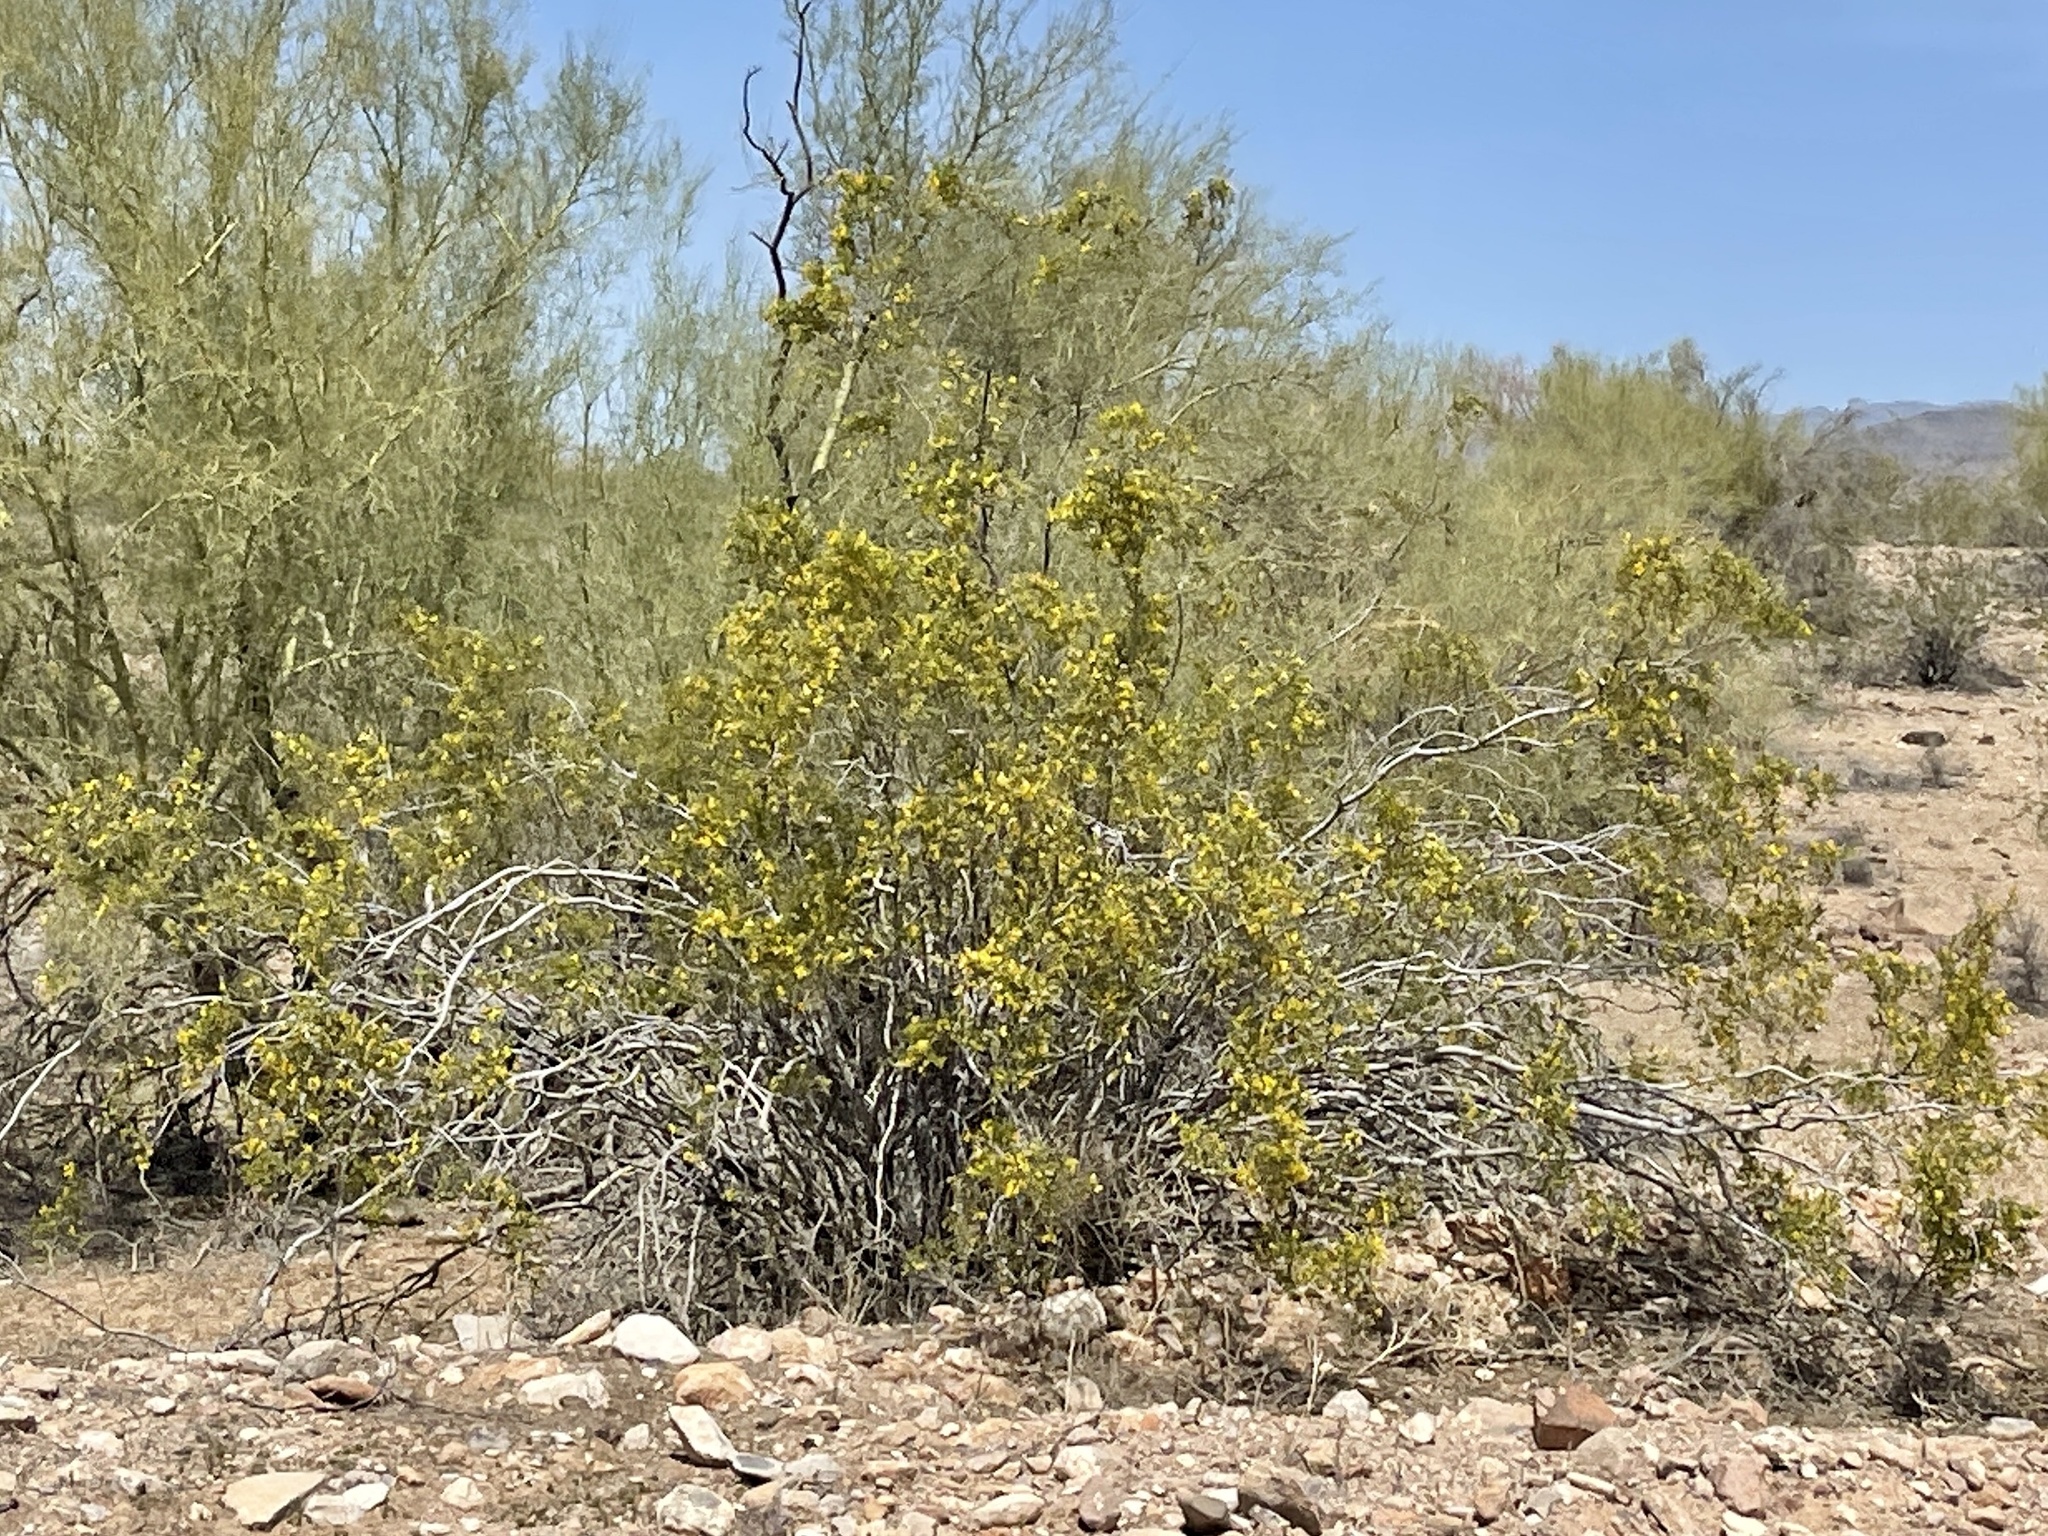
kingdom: Plantae
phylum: Tracheophyta
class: Magnoliopsida
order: Zygophyllales
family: Zygophyllaceae
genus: Larrea
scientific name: Larrea tridentata
